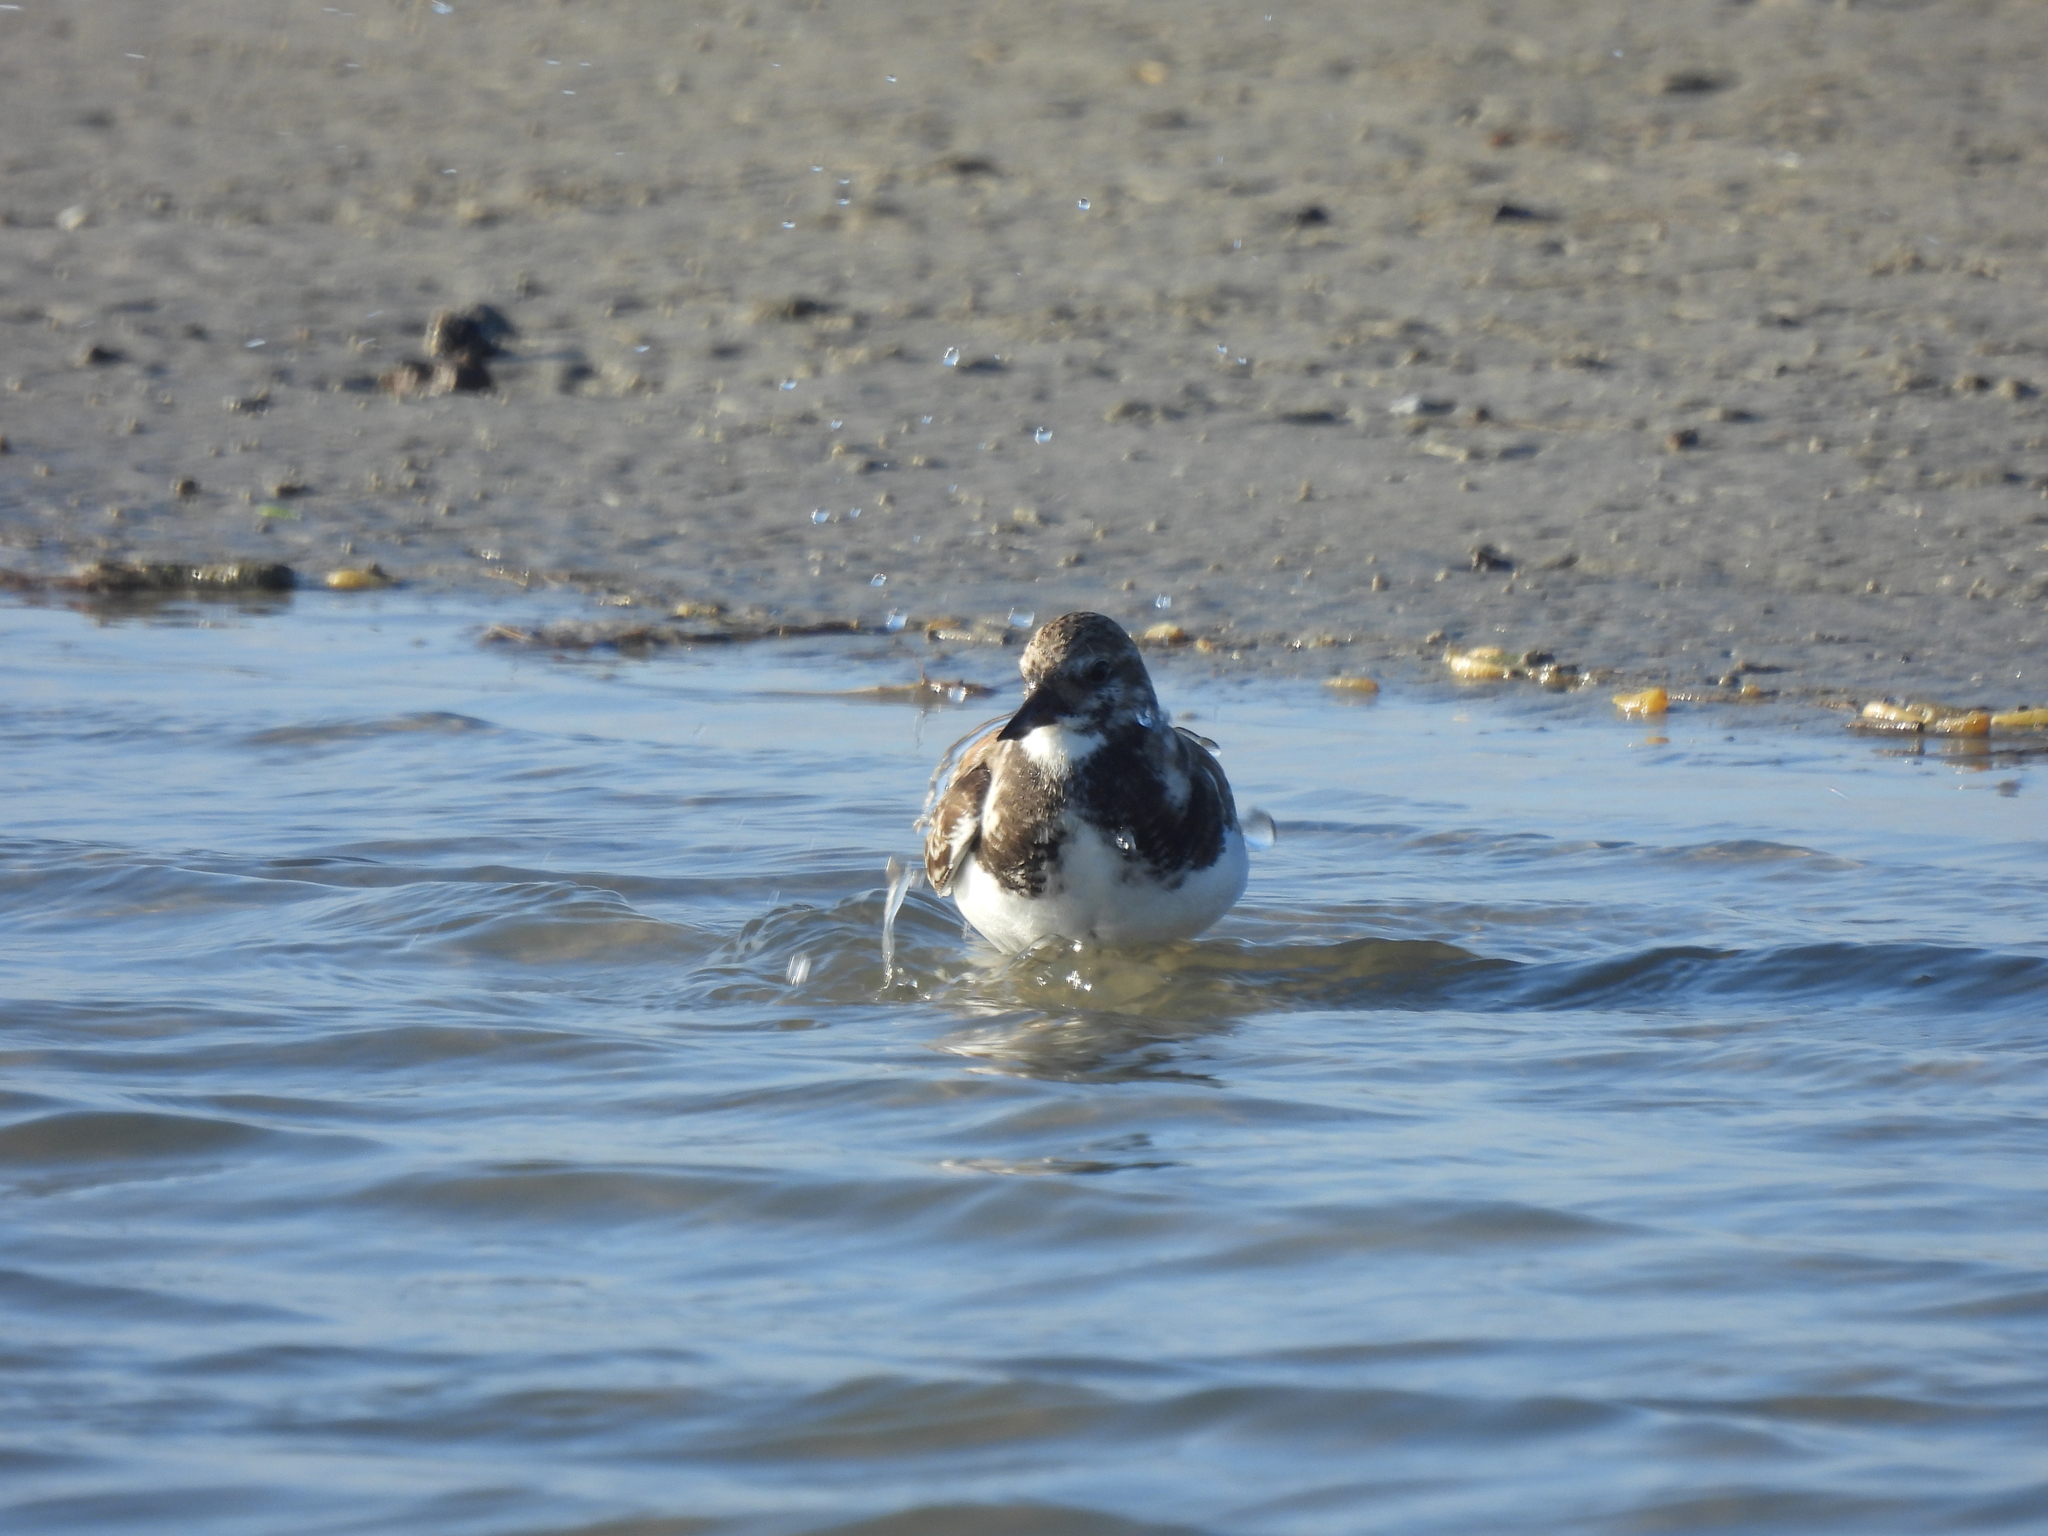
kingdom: Animalia
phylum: Chordata
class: Aves
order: Charadriiformes
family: Scolopacidae
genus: Arenaria
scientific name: Arenaria interpres
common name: Ruddy turnstone
